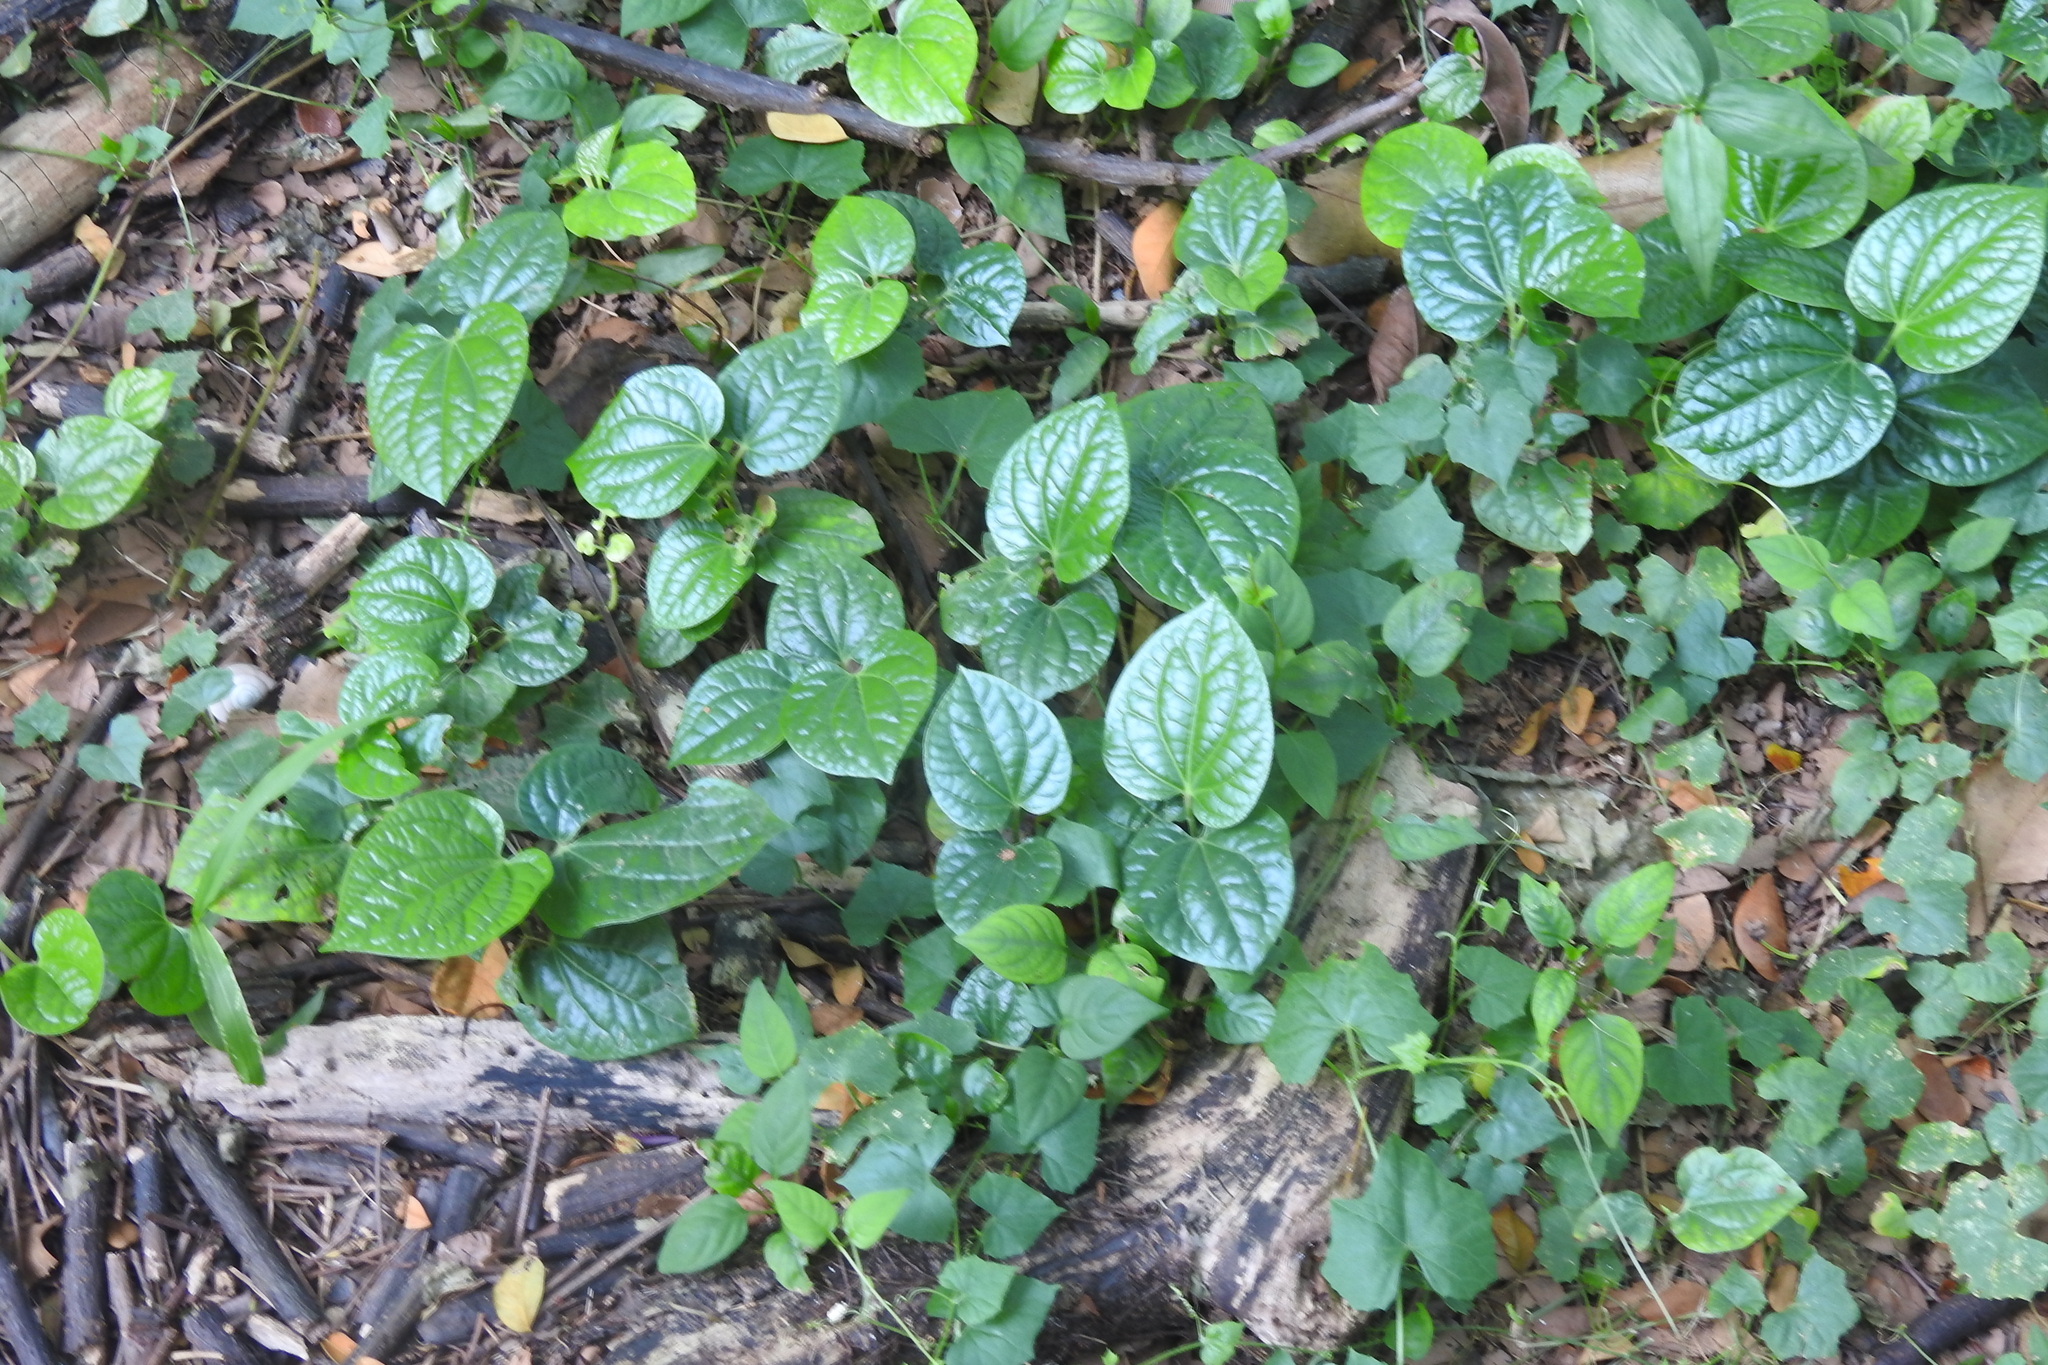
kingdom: Plantae
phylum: Tracheophyta
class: Magnoliopsida
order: Piperales
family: Piperaceae
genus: Piper
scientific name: Piper sarmentosum
